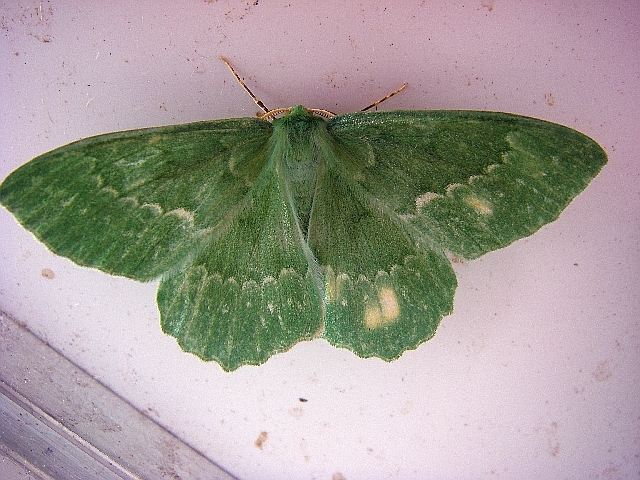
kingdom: Animalia
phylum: Arthropoda
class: Insecta
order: Lepidoptera
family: Geometridae
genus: Geometra
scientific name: Geometra papilionaria
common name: Large emerald
